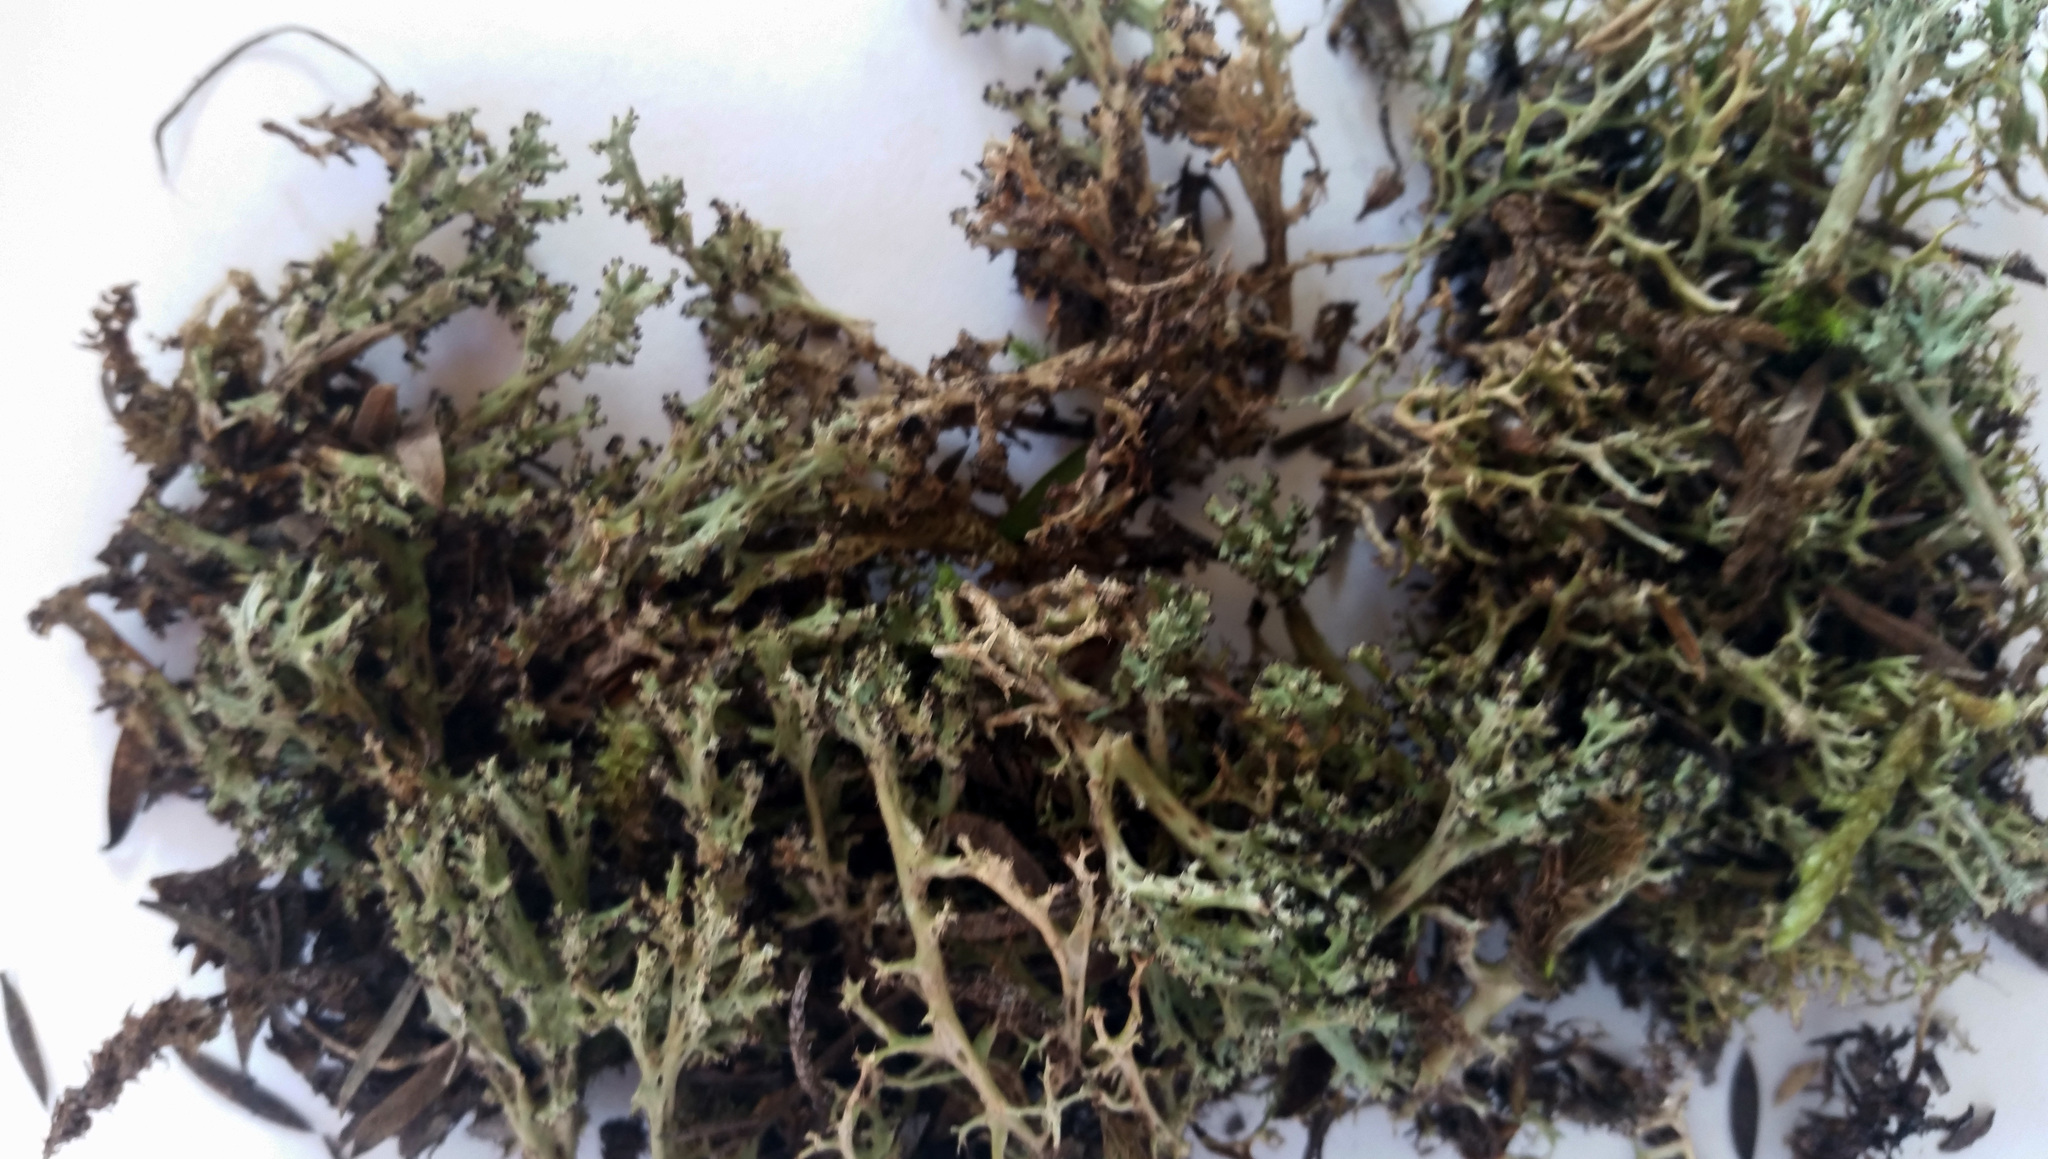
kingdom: Fungi
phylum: Ascomycota
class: Lecanoromycetes
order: Lecanorales
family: Cladoniaceae
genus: Cladia
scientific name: Cladia inflata
